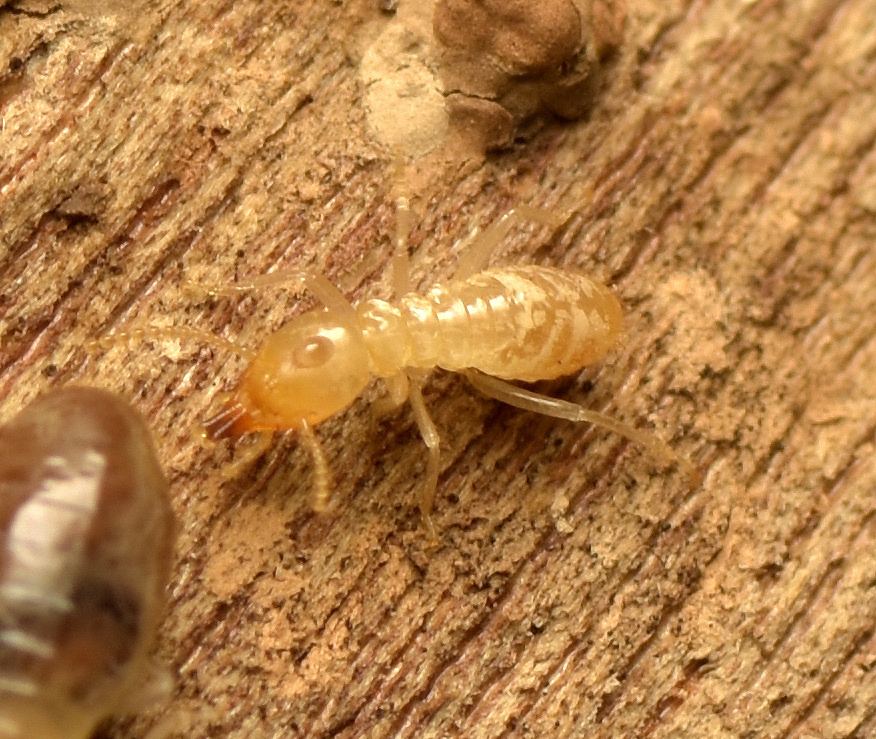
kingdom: Animalia
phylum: Arthropoda
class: Insecta
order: Blattodea
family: Rhinotermitidae
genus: Schedorhinotermes
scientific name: Schedorhinotermes seclusus
